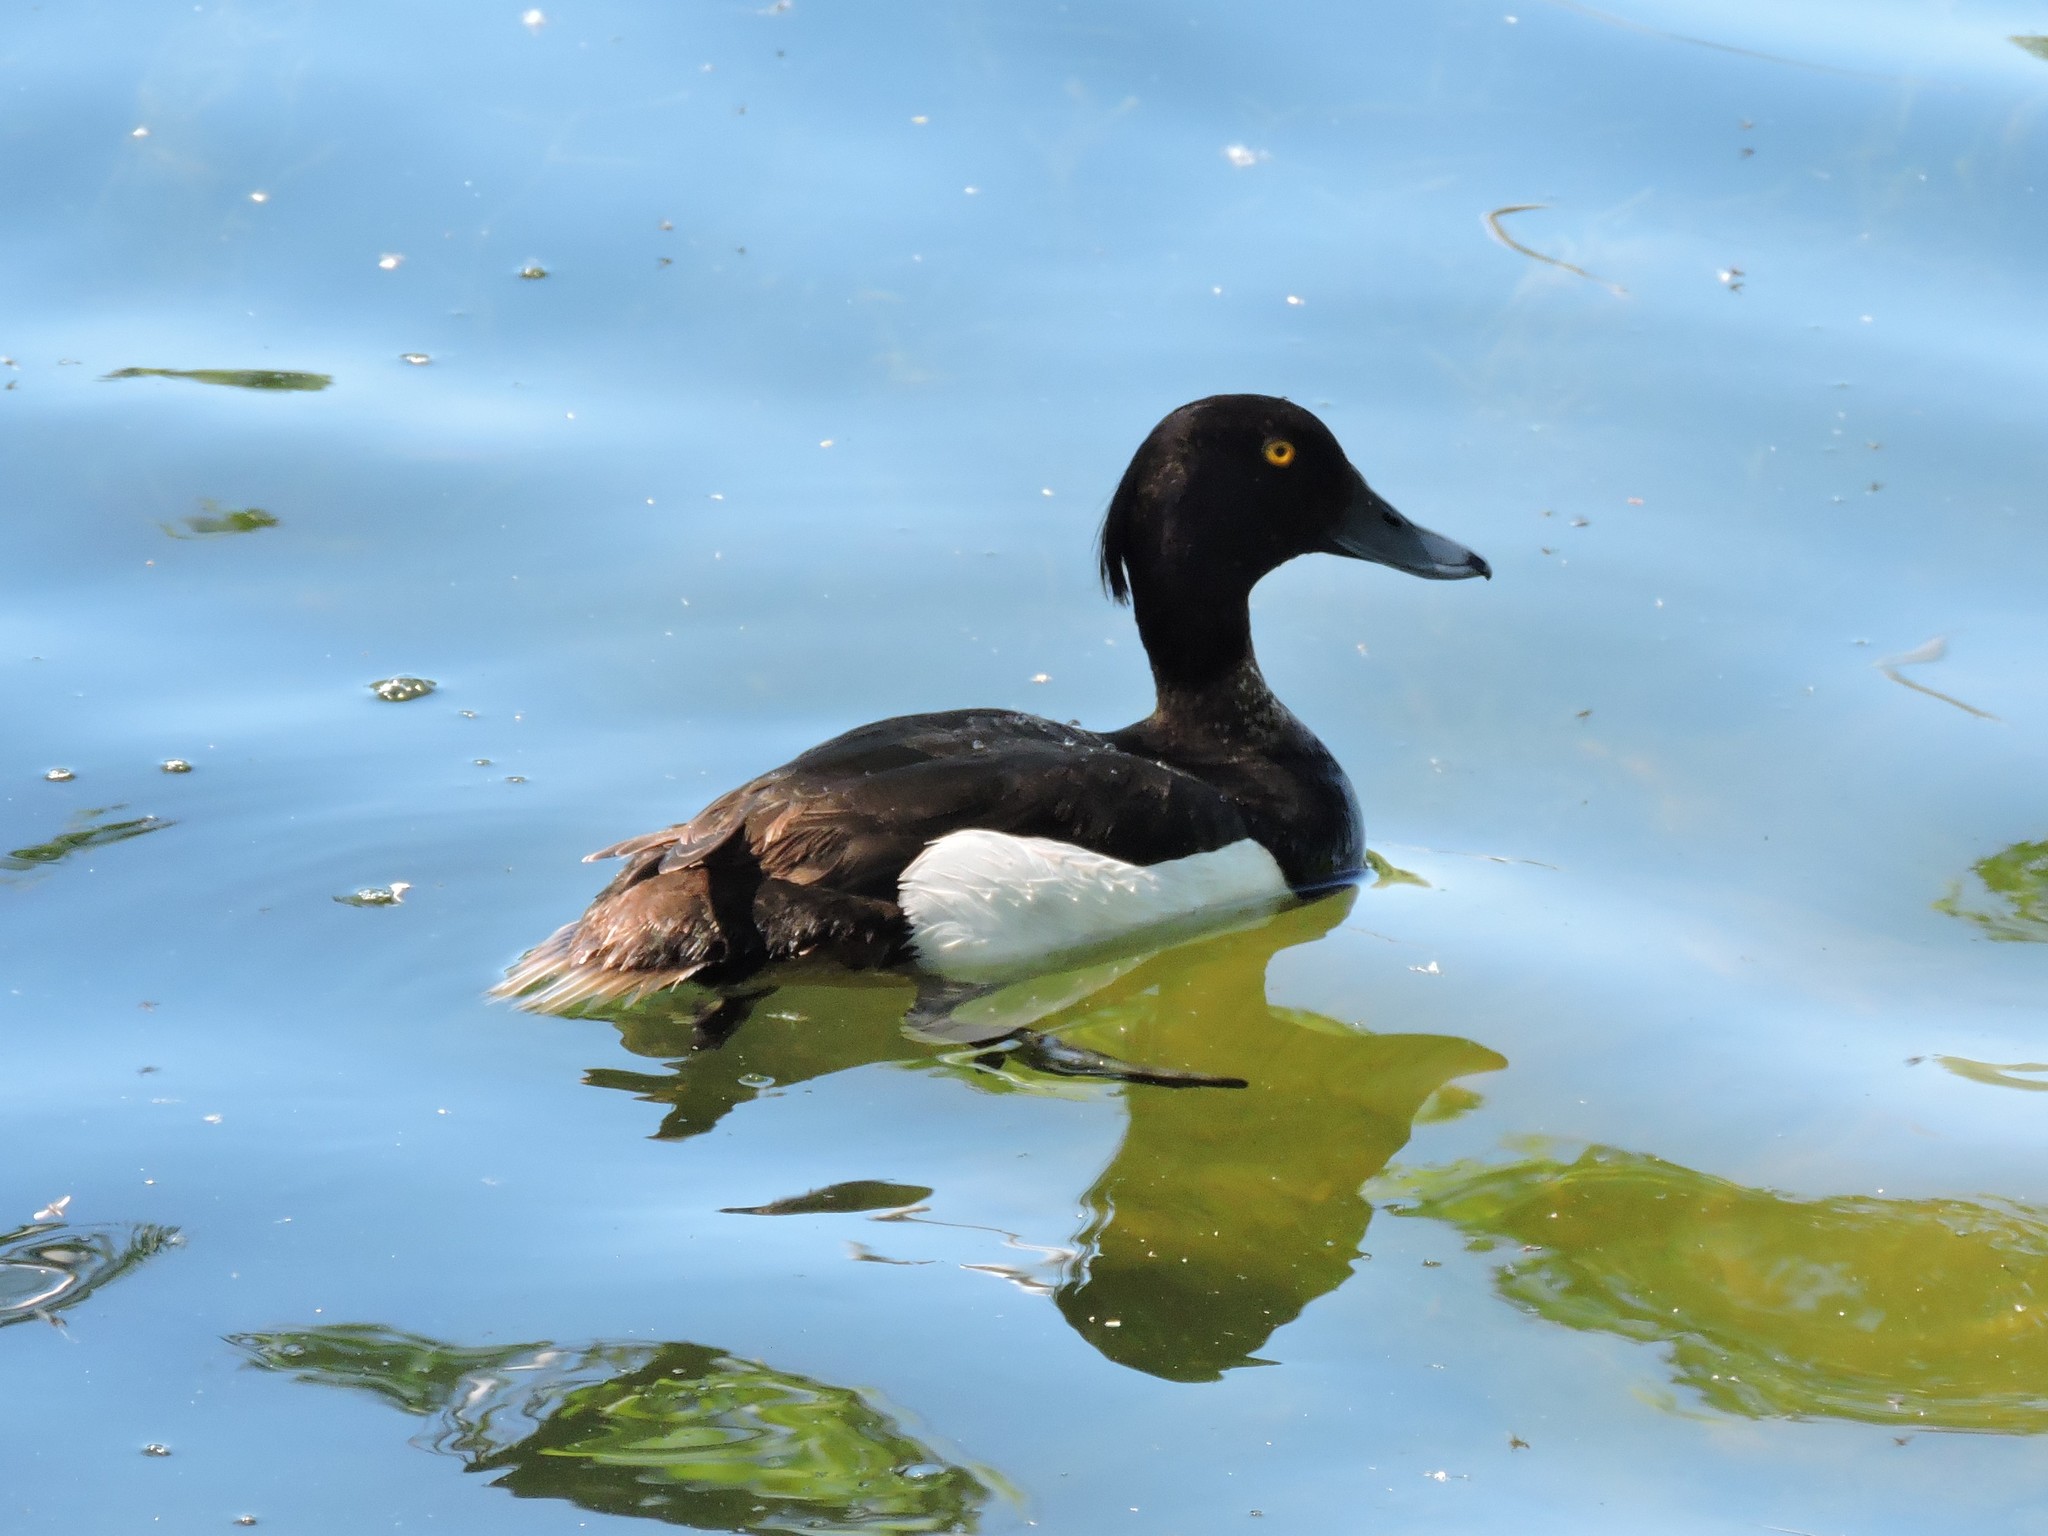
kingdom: Animalia
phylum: Chordata
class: Aves
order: Anseriformes
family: Anatidae
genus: Aythya
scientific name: Aythya fuligula
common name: Tufted duck
